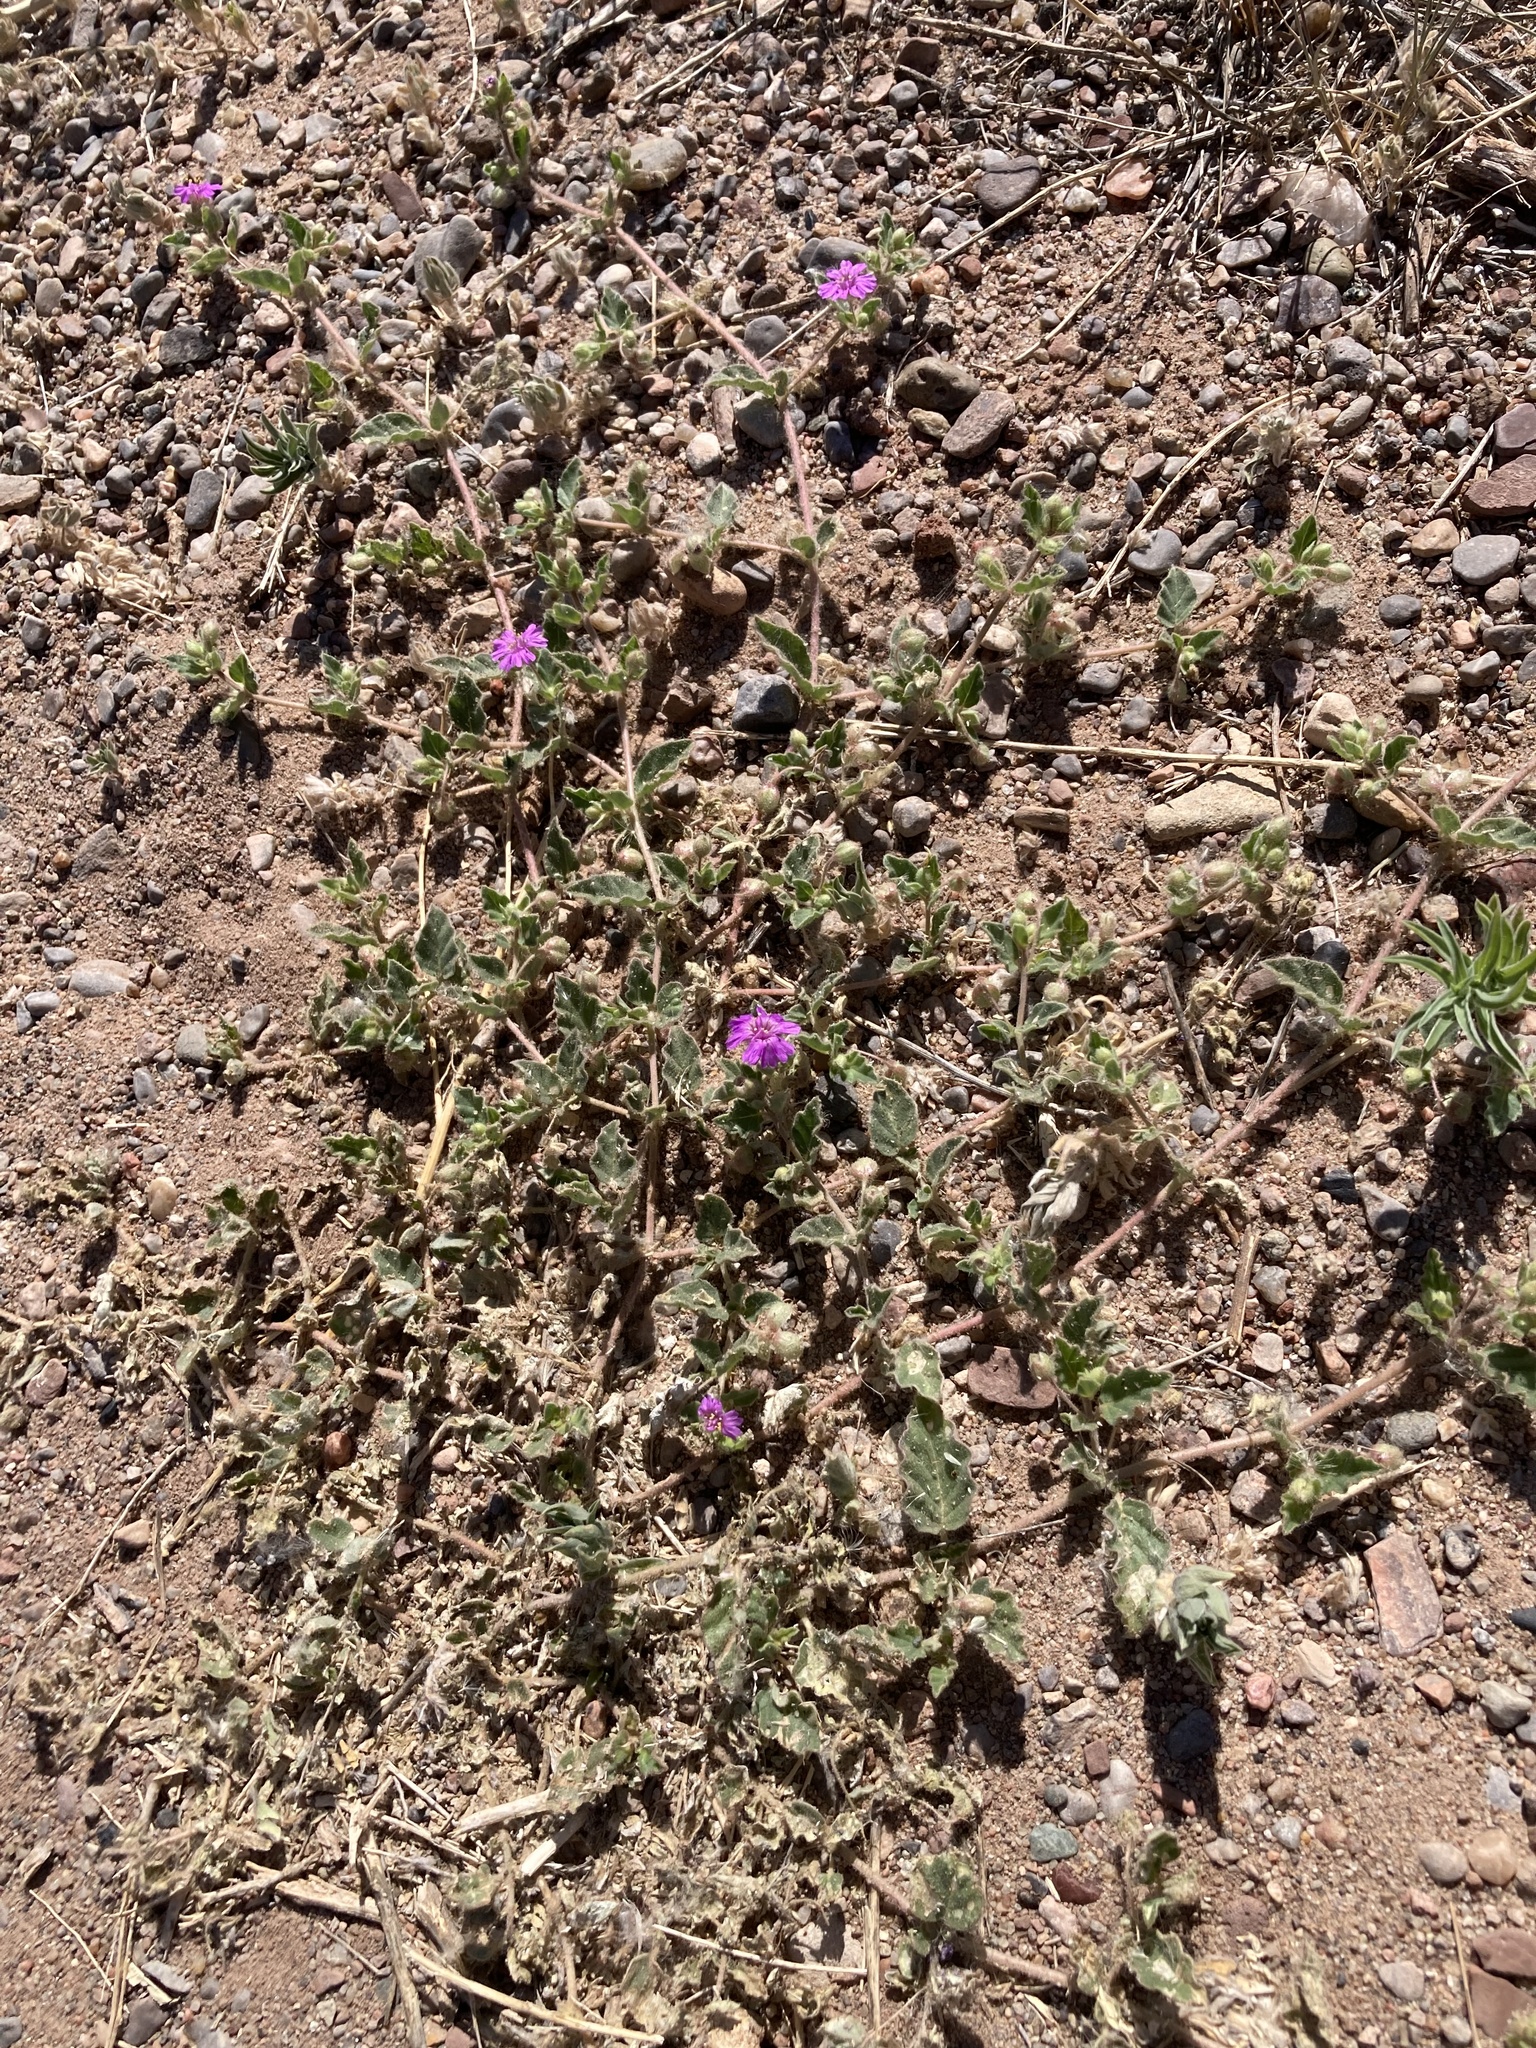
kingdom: Plantae
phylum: Tracheophyta
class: Magnoliopsida
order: Caryophyllales
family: Nyctaginaceae
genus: Allionia
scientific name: Allionia incarnata
